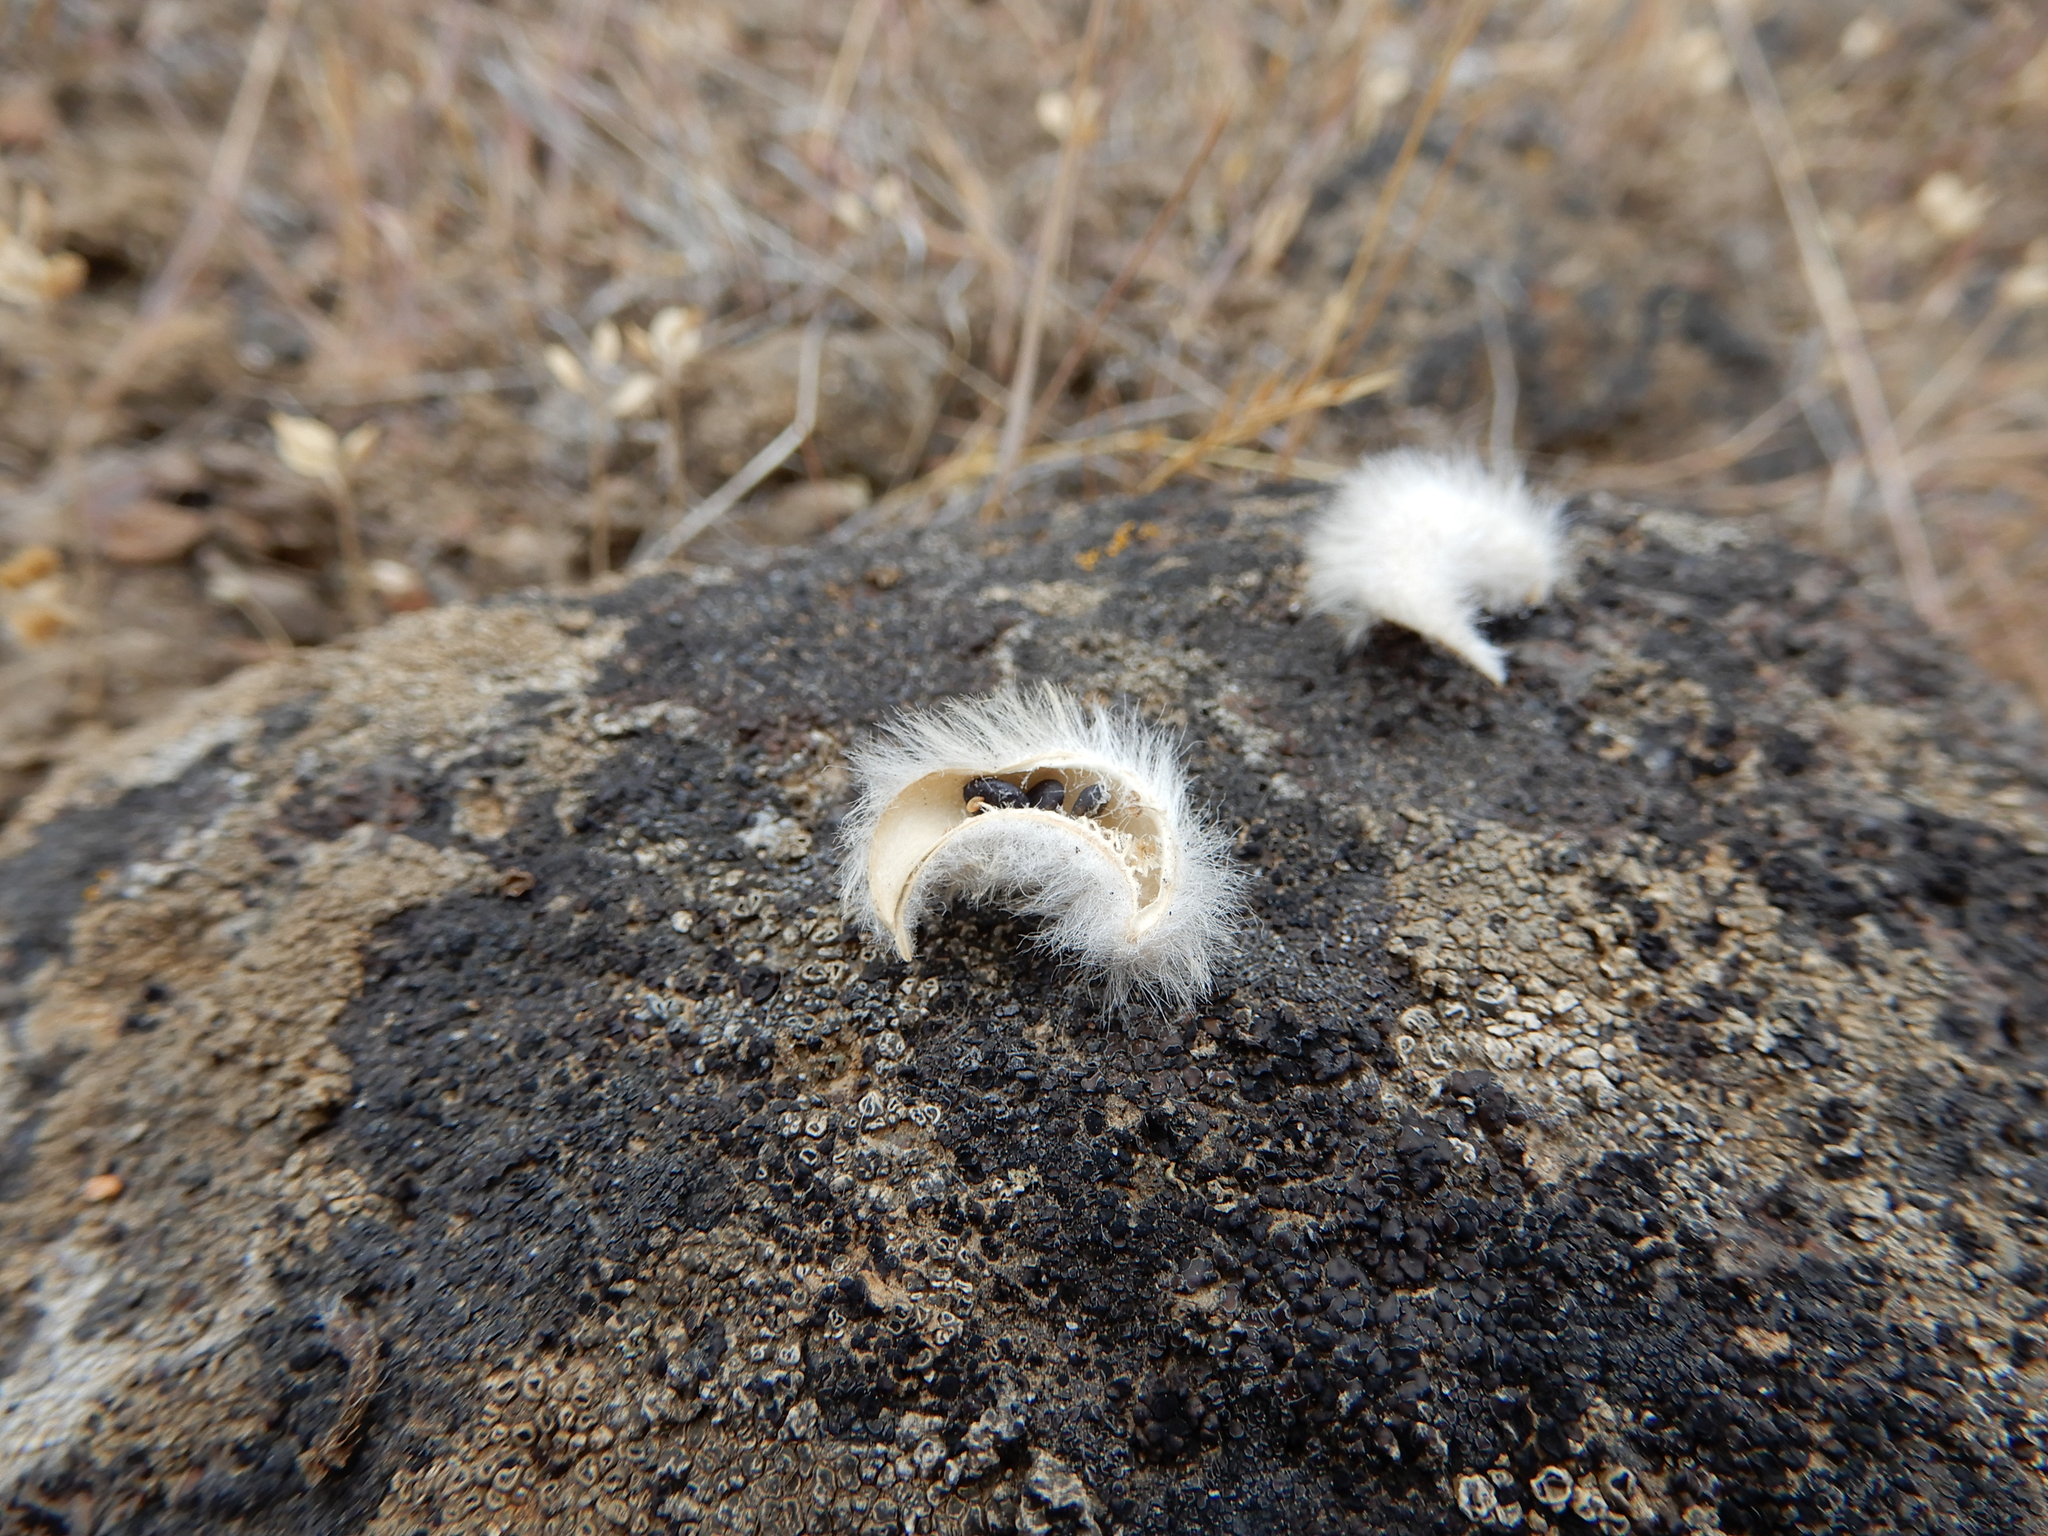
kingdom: Plantae
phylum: Tracheophyta
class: Magnoliopsida
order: Fabales
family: Fabaceae
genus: Astragalus
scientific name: Astragalus purshii
